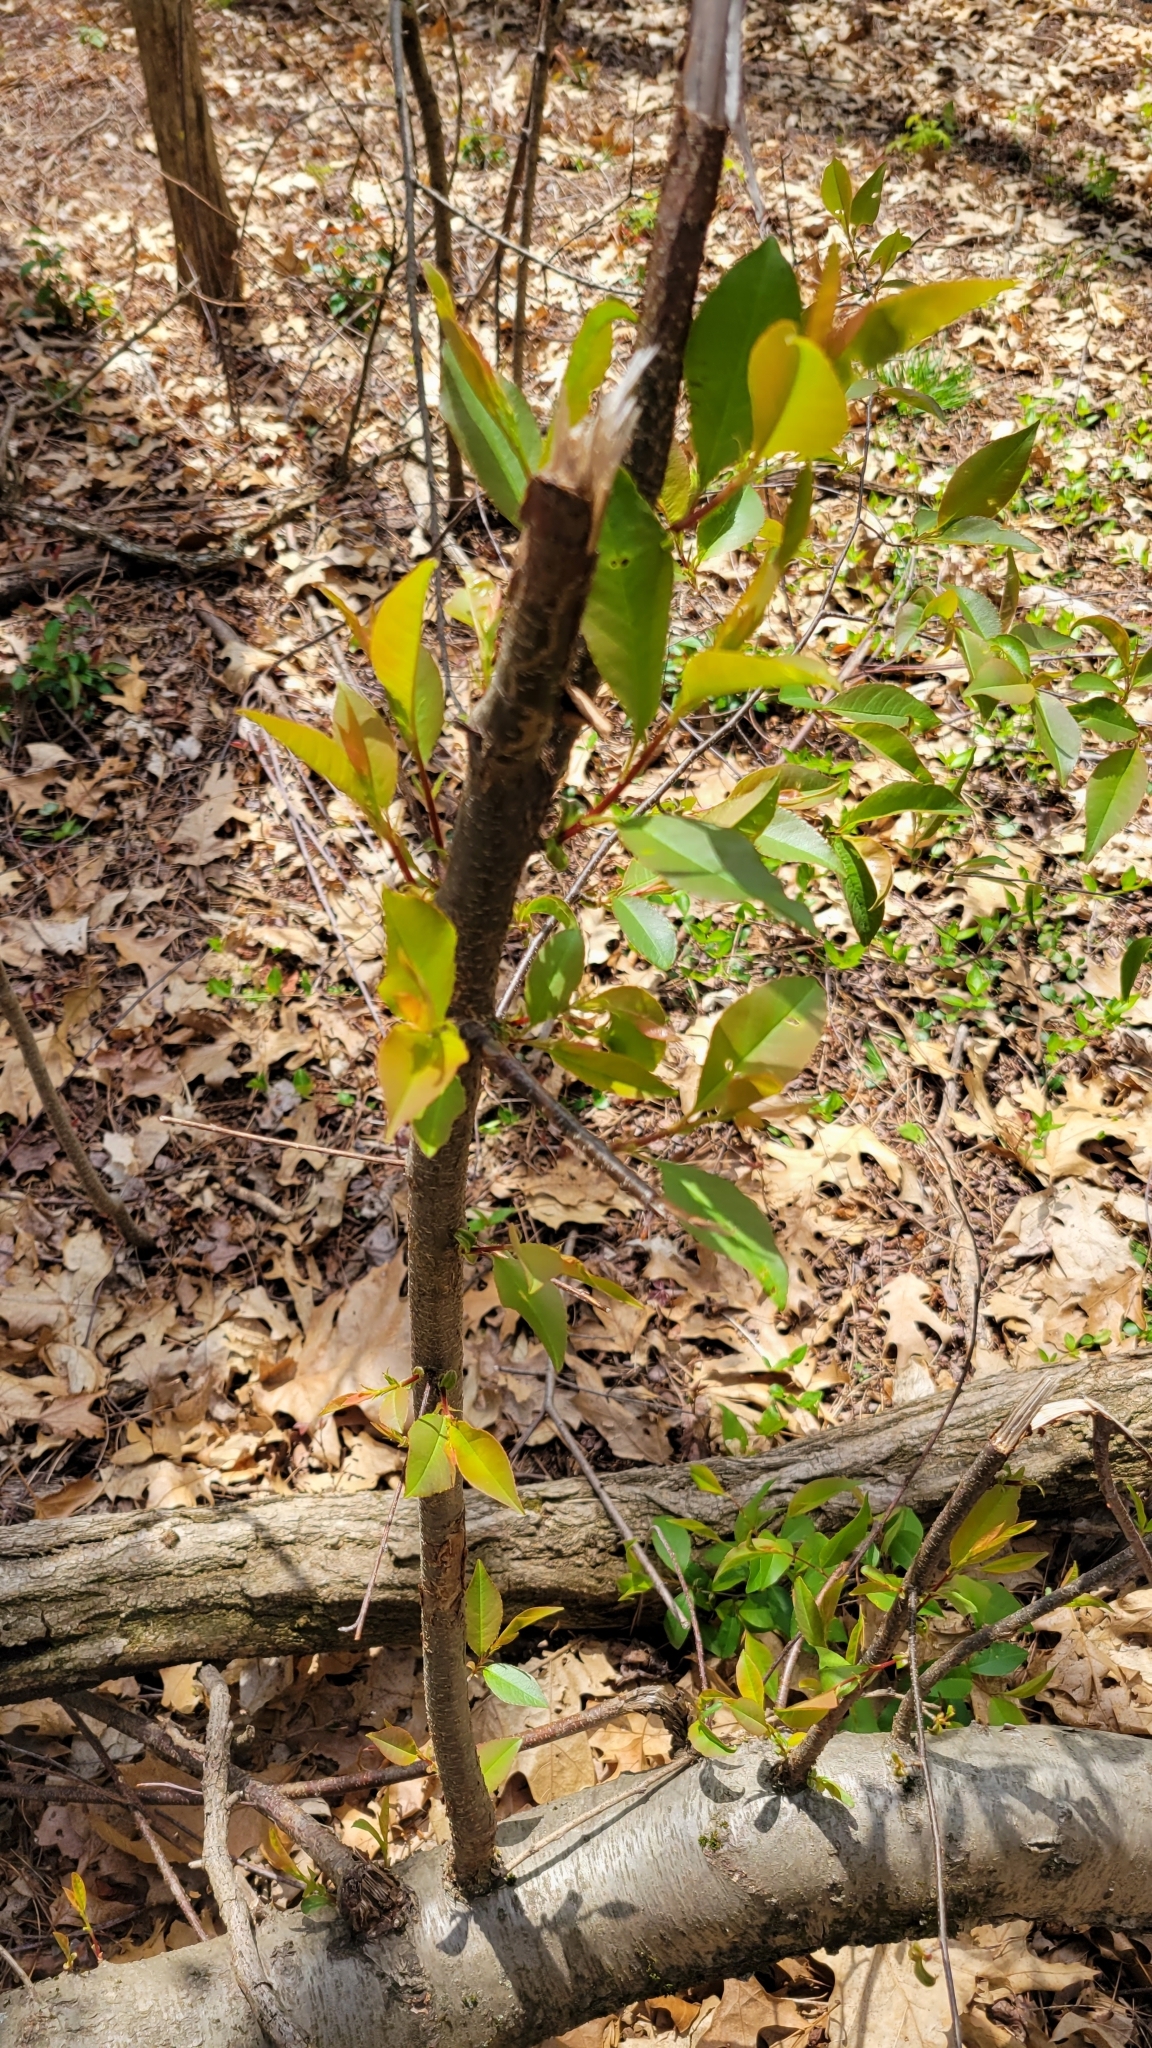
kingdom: Plantae
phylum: Tracheophyta
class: Magnoliopsida
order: Rosales
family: Rosaceae
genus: Prunus
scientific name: Prunus serotina
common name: Black cherry
